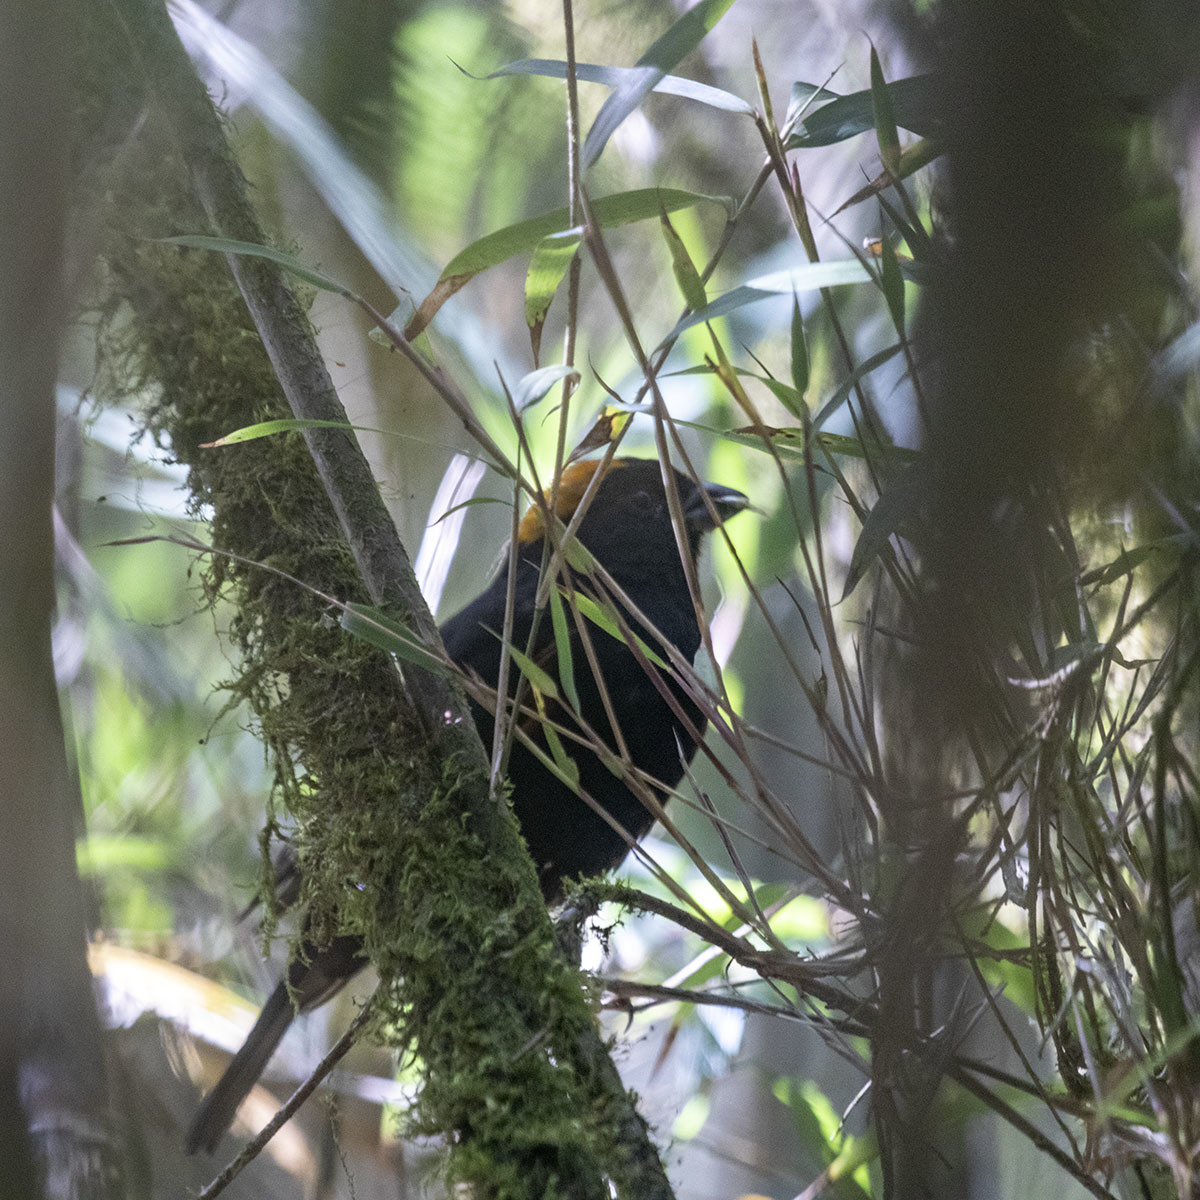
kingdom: Animalia
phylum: Chordata
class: Aves
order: Passeriformes
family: Fringillidae
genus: Pyrrhoplectes
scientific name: Pyrrhoplectes epauletta
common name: Golden-naped finch
